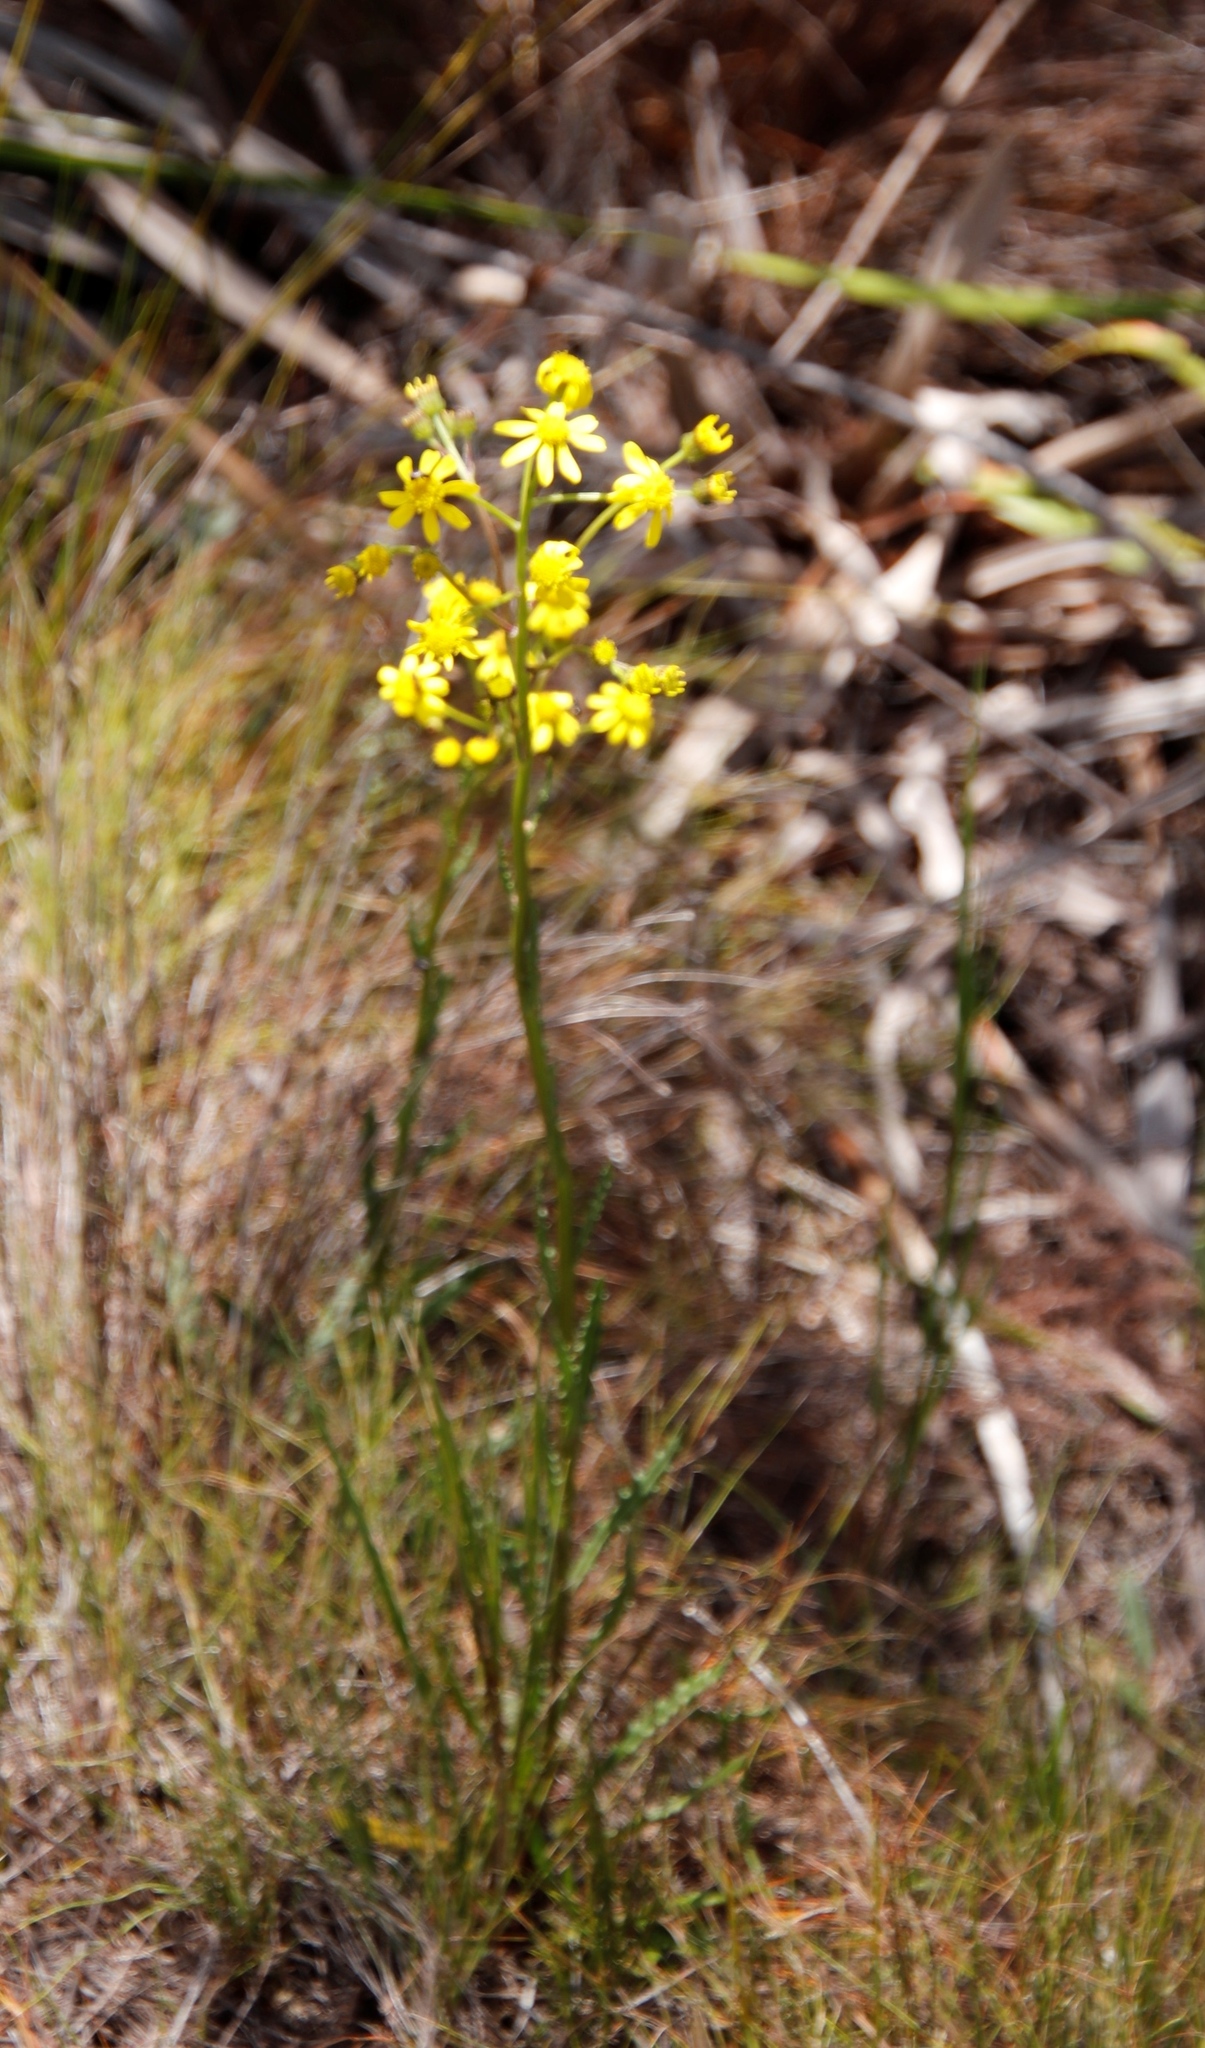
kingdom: Plantae
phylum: Tracheophyta
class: Magnoliopsida
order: Asterales
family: Asteraceae
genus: Senecio
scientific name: Senecio crispus
